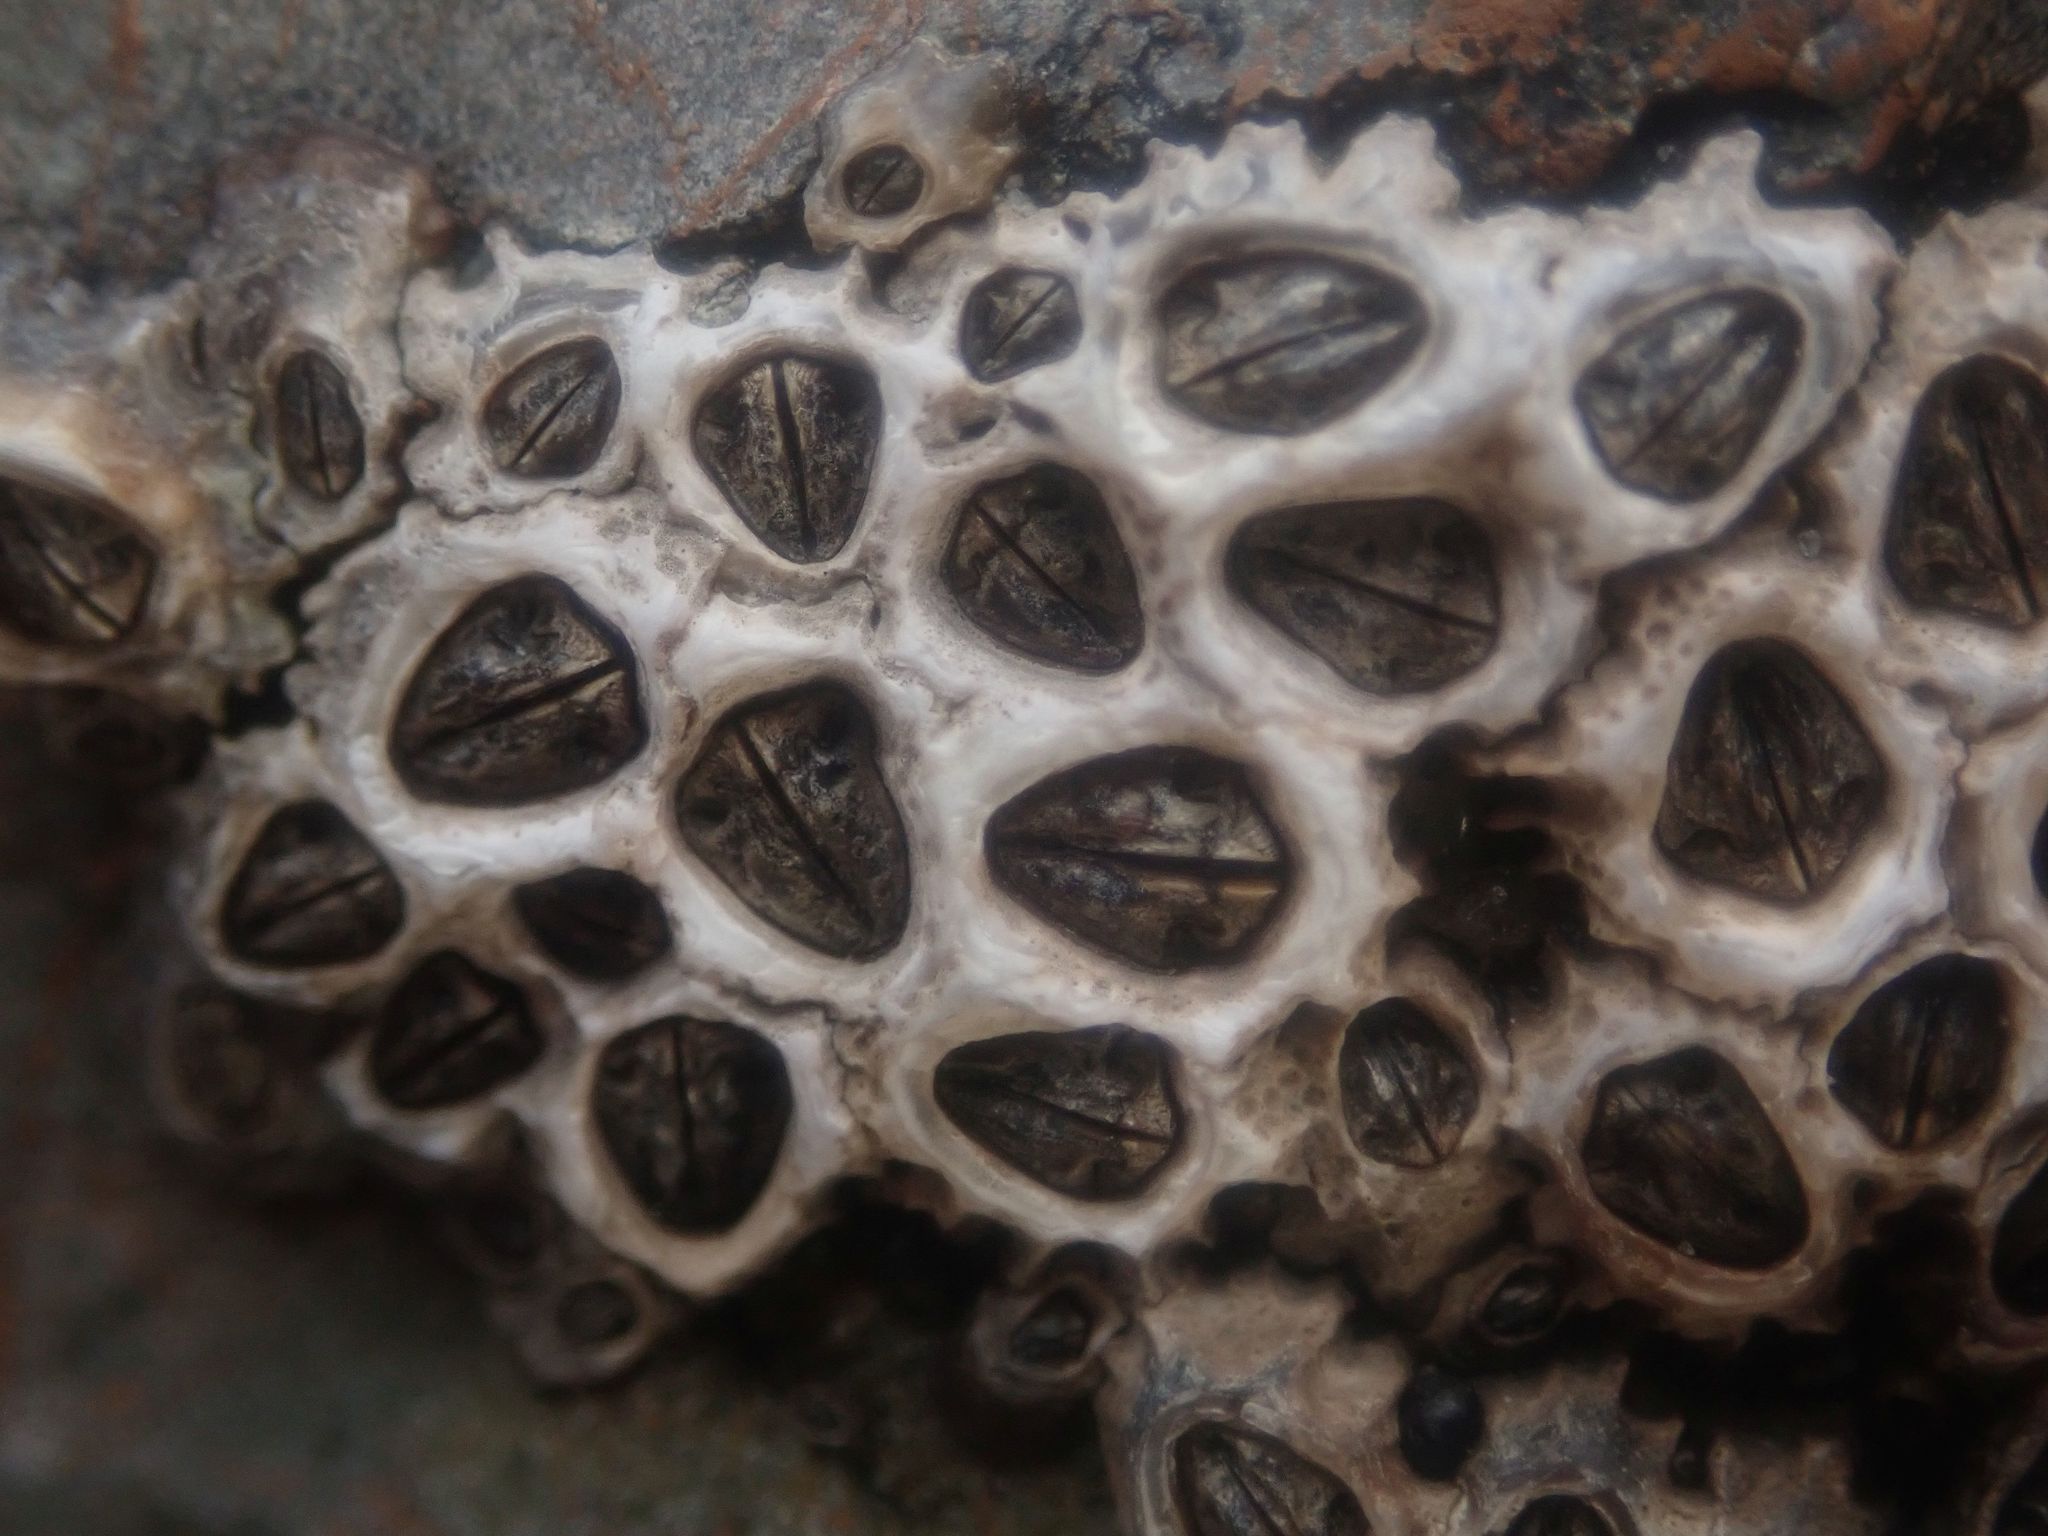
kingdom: Animalia
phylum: Arthropoda
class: Maxillopoda
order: Sessilia
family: Chthamalidae
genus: Chamaesipho
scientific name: Chamaesipho columna
